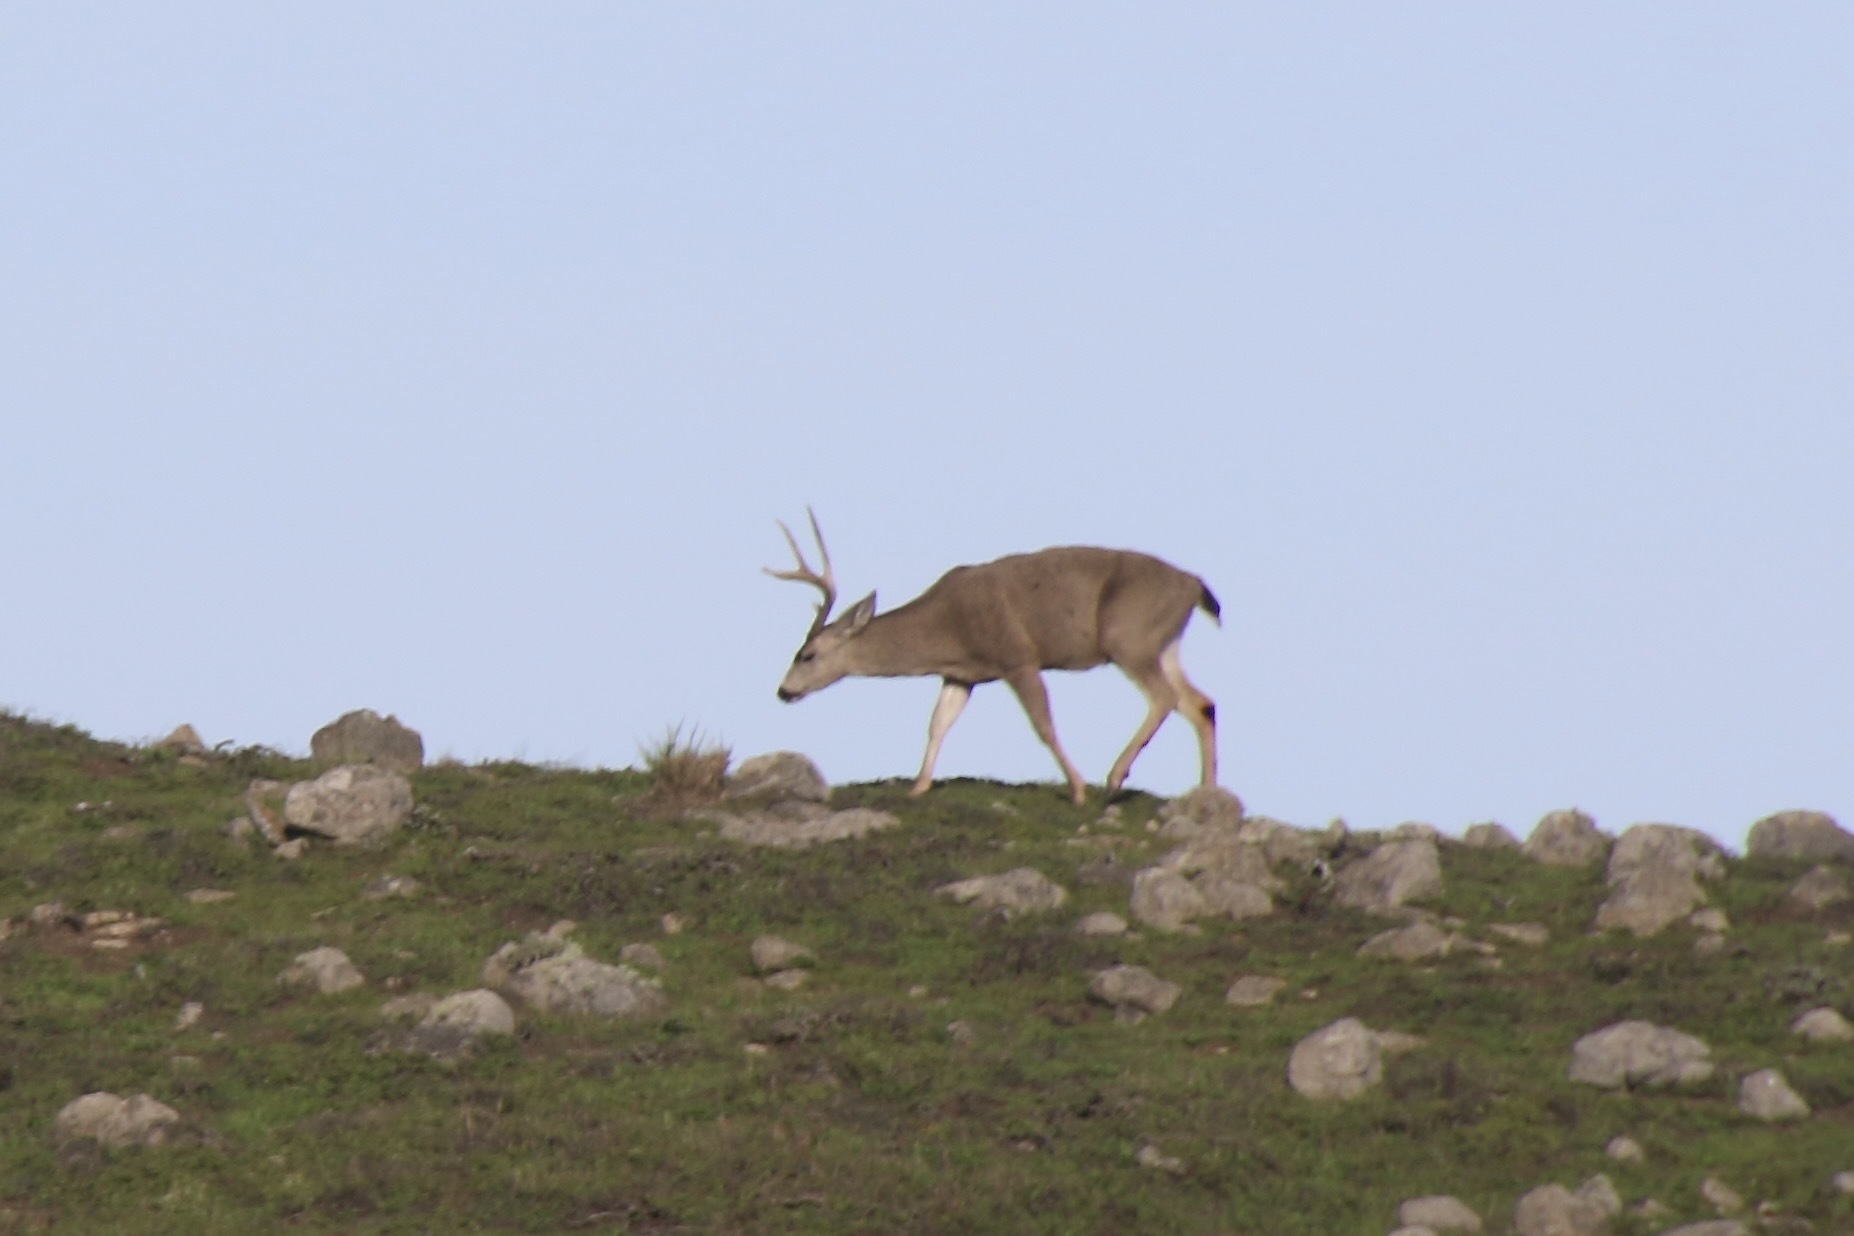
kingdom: Animalia
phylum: Chordata
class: Mammalia
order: Artiodactyla
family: Cervidae
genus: Odocoileus
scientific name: Odocoileus hemionus
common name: Mule deer
